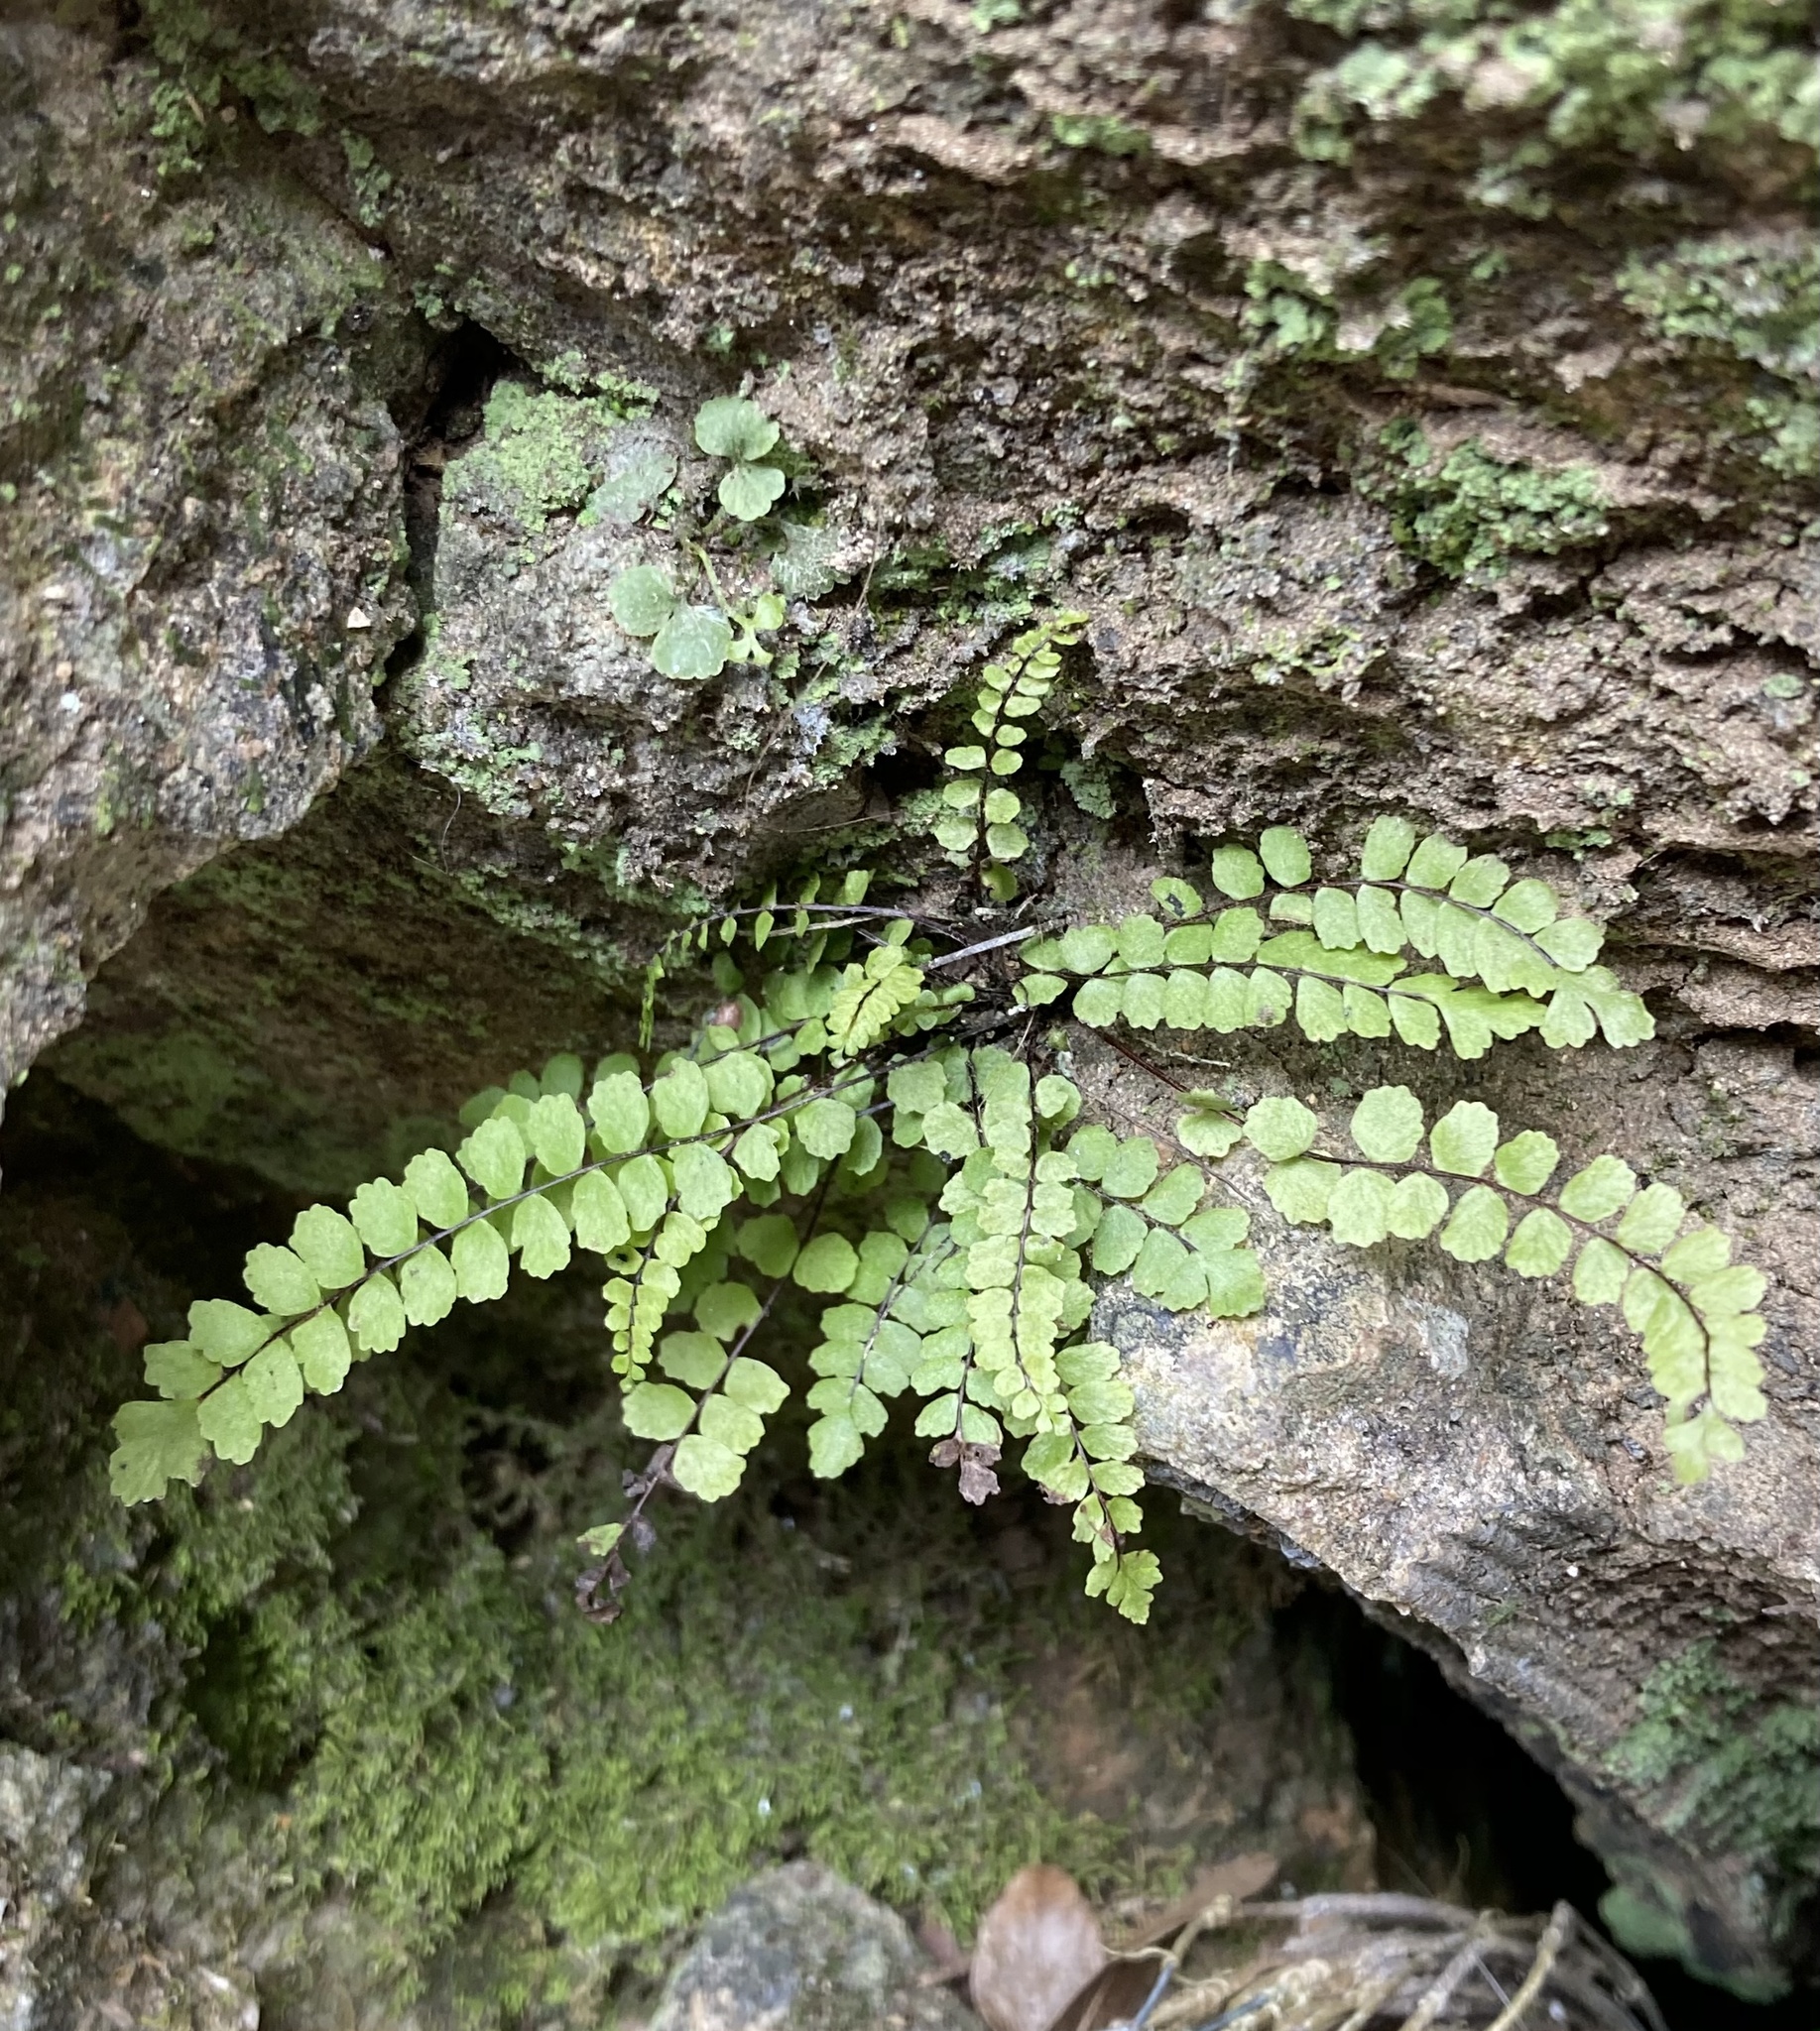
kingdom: Plantae
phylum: Tracheophyta
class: Polypodiopsida
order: Polypodiales
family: Aspleniaceae
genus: Asplenium
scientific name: Asplenium trichomanes
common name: Maidenhair spleenwort
